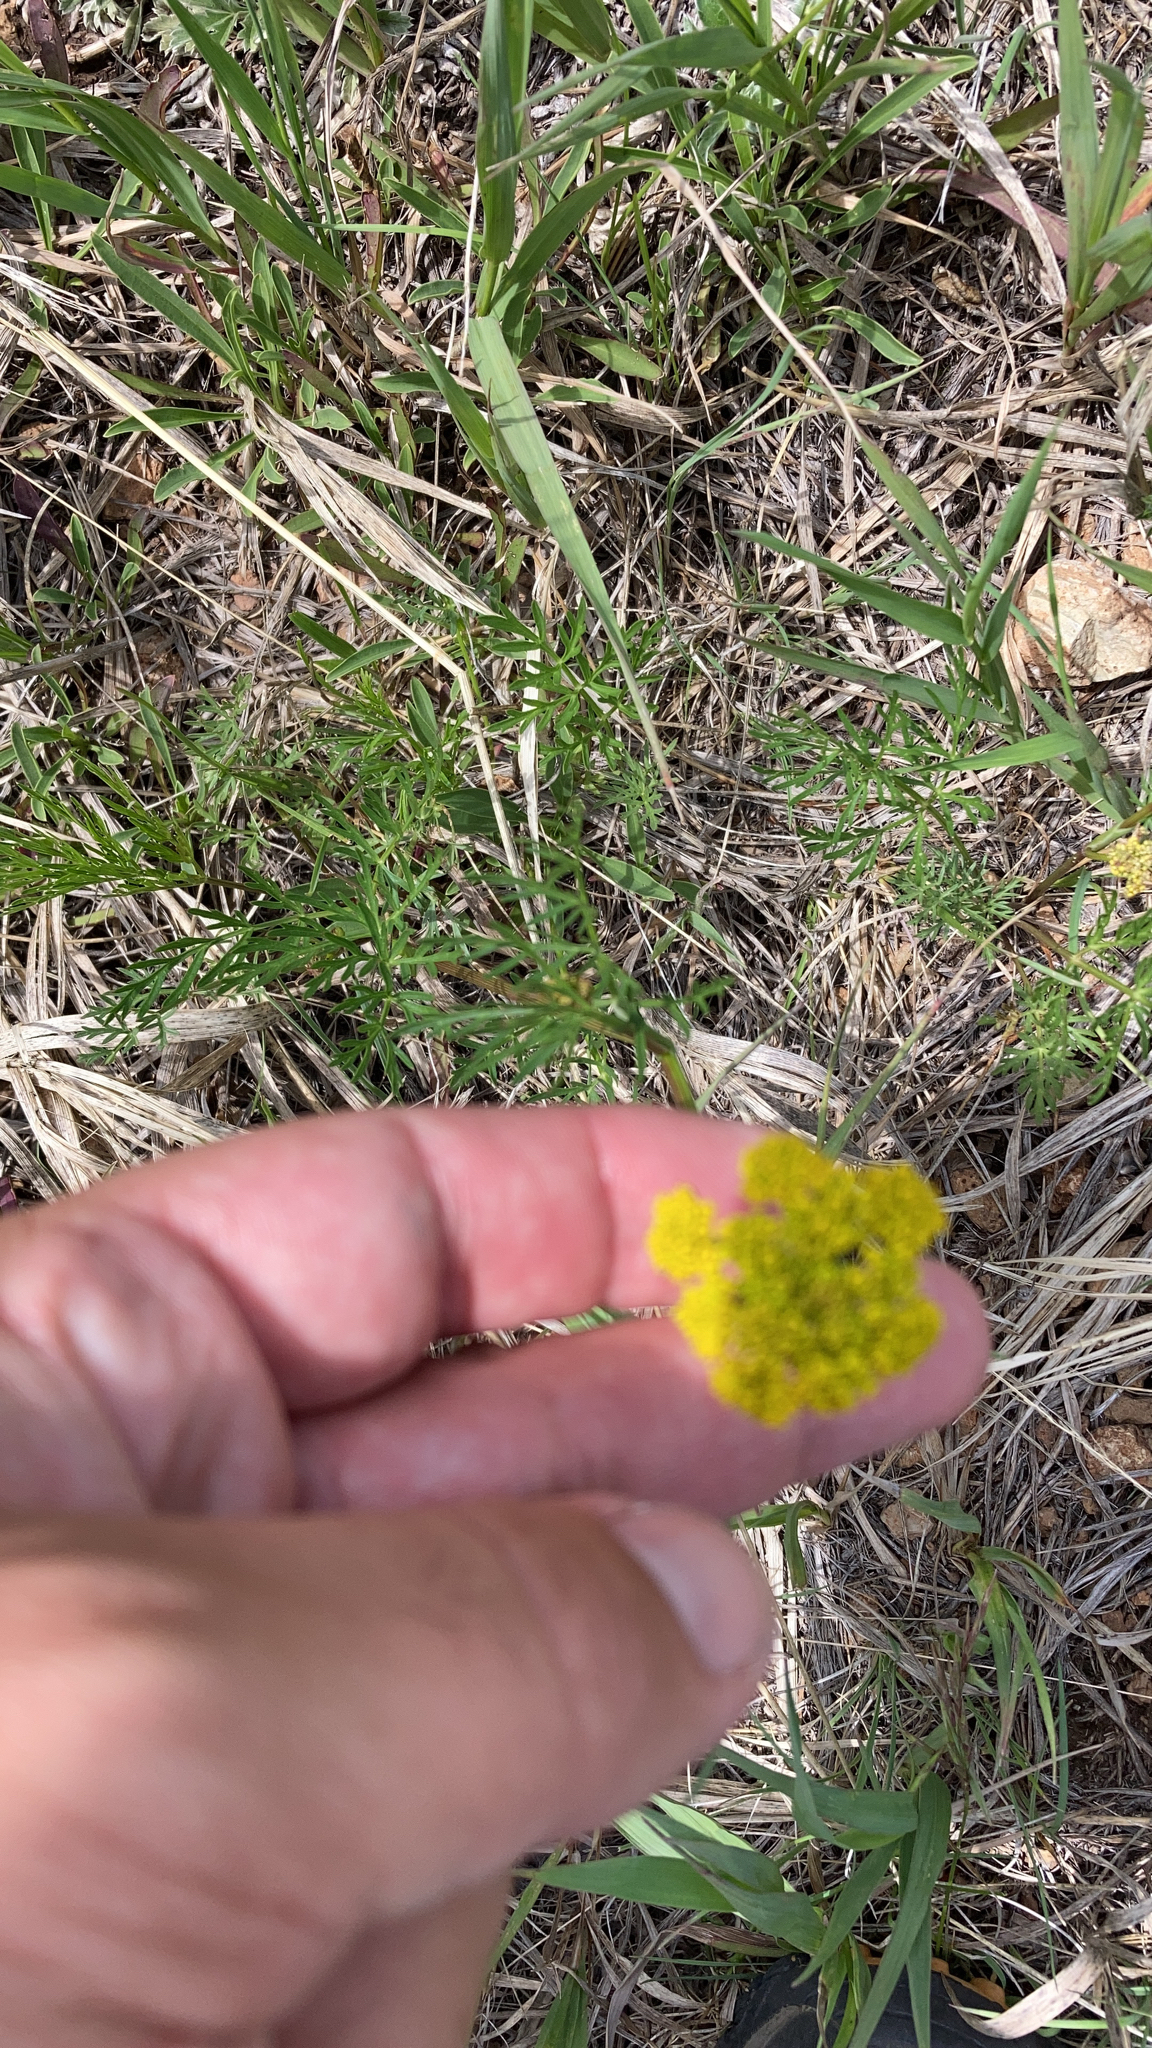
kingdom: Plantae
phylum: Tracheophyta
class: Magnoliopsida
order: Apiales
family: Apiaceae
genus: Cymopterus
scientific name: Cymopterus lemmonii
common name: Lemmon's spring-parsley
